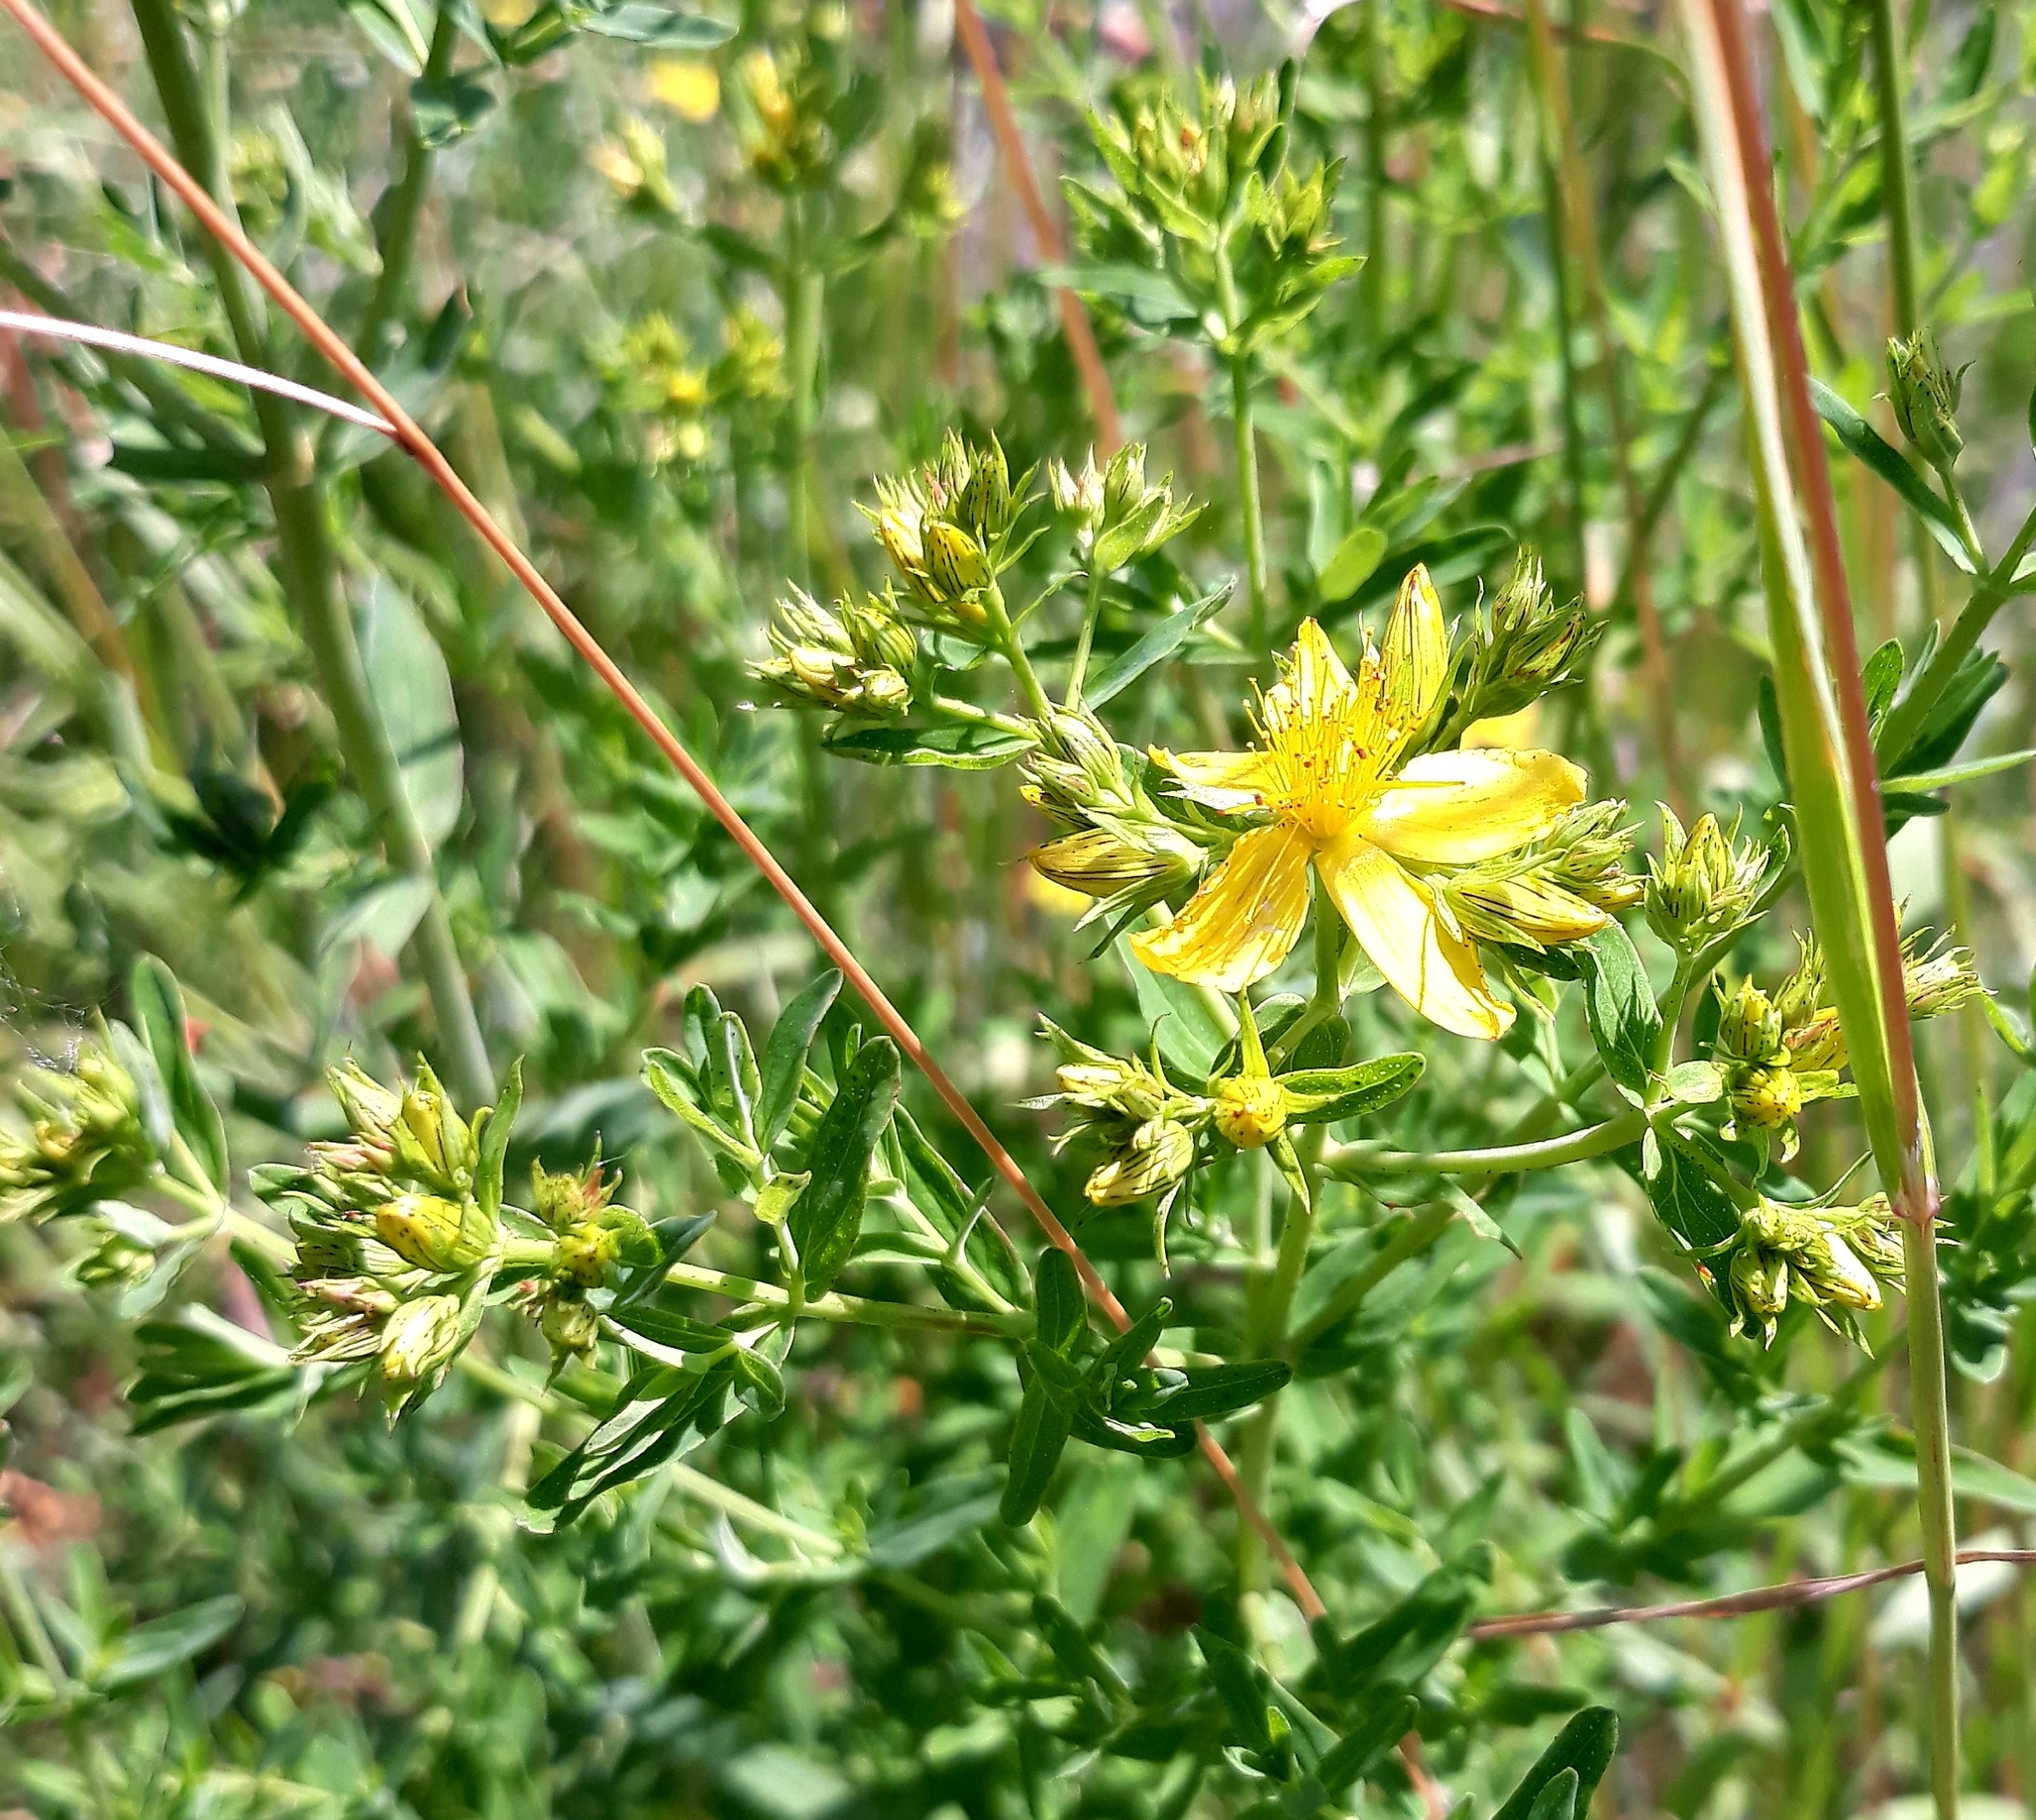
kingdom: Plantae
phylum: Tracheophyta
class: Magnoliopsida
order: Malpighiales
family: Hypericaceae
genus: Hypericum
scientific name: Hypericum perforatum
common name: Common st. johnswort
